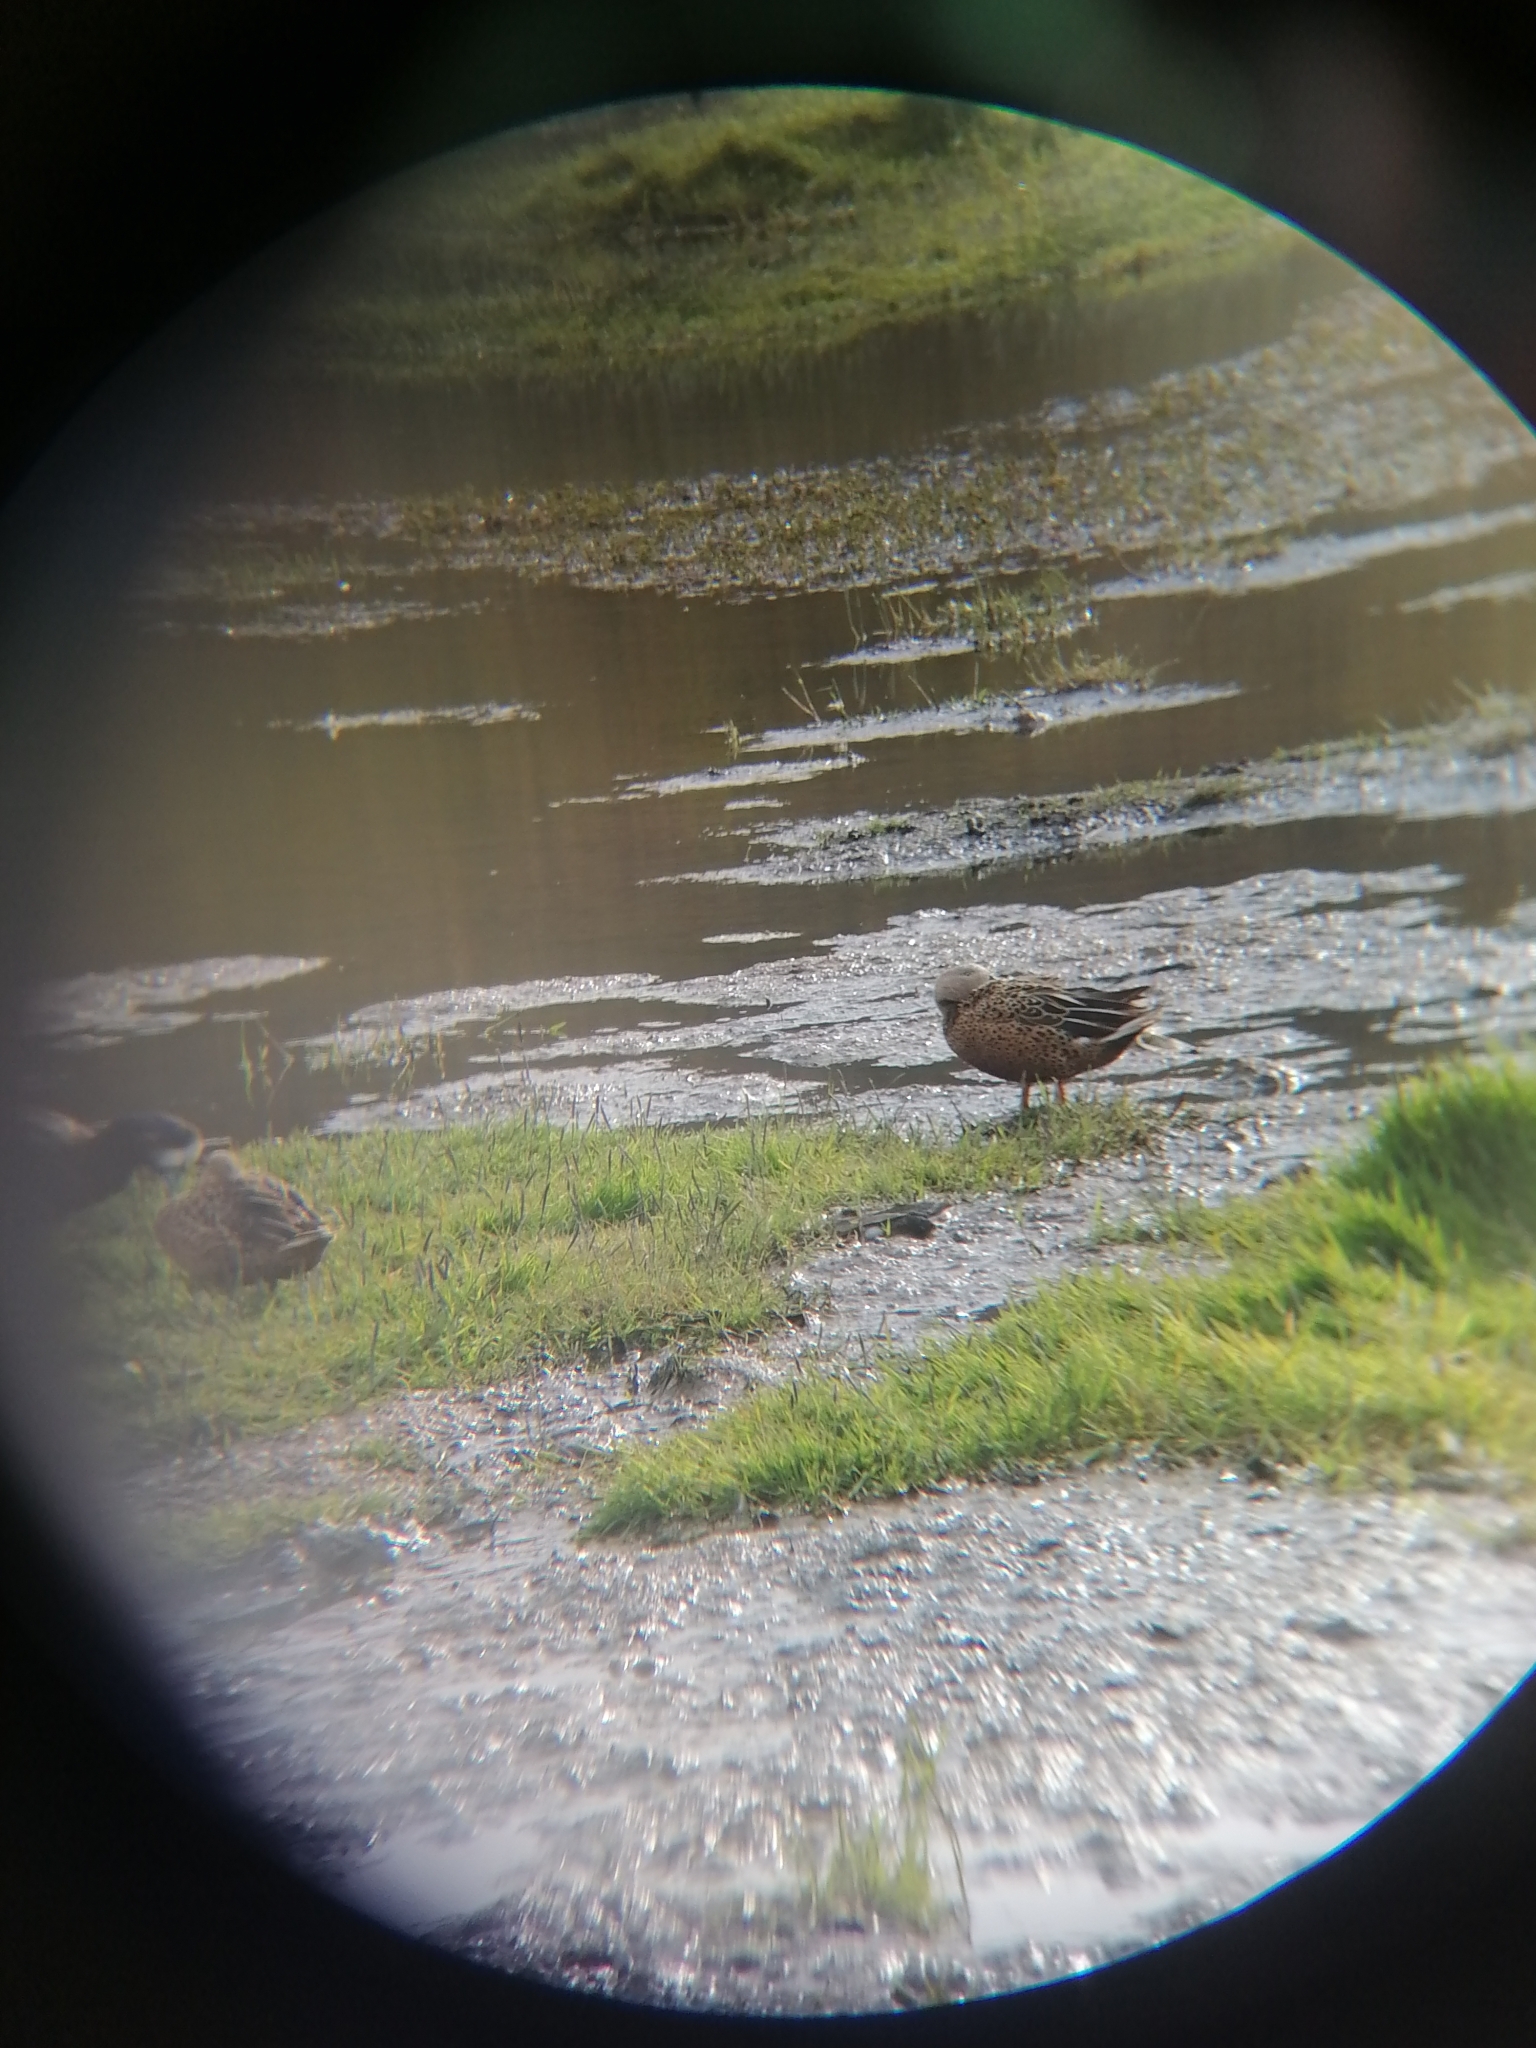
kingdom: Animalia
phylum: Chordata
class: Aves
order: Anseriformes
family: Anatidae
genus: Spatula
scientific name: Spatula platalea
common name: Red shoveler
